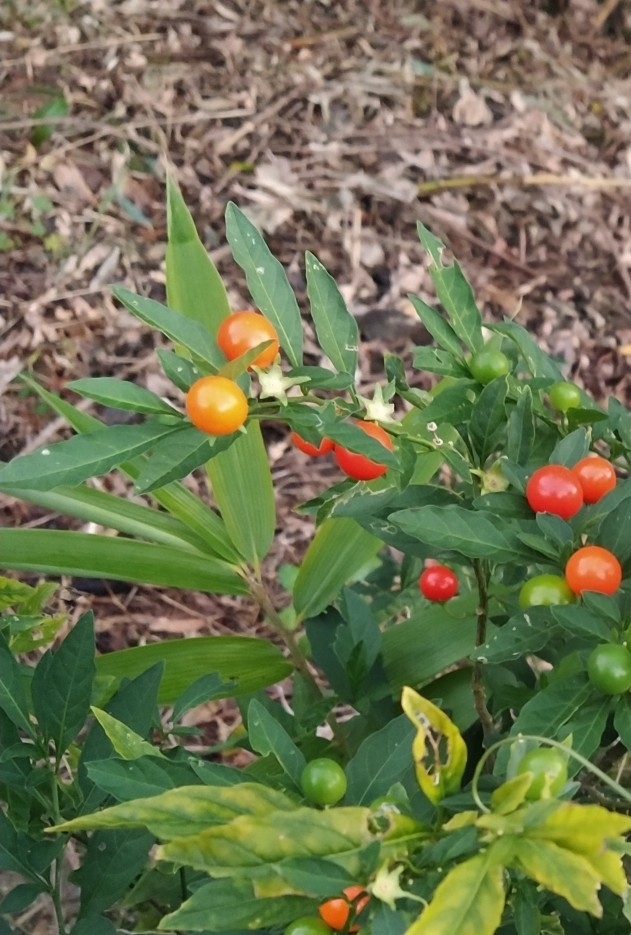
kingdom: Plantae
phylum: Tracheophyta
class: Magnoliopsida
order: Solanales
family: Solanaceae
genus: Solanum
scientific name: Solanum pseudocapsicum
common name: Jerusalem cherry
